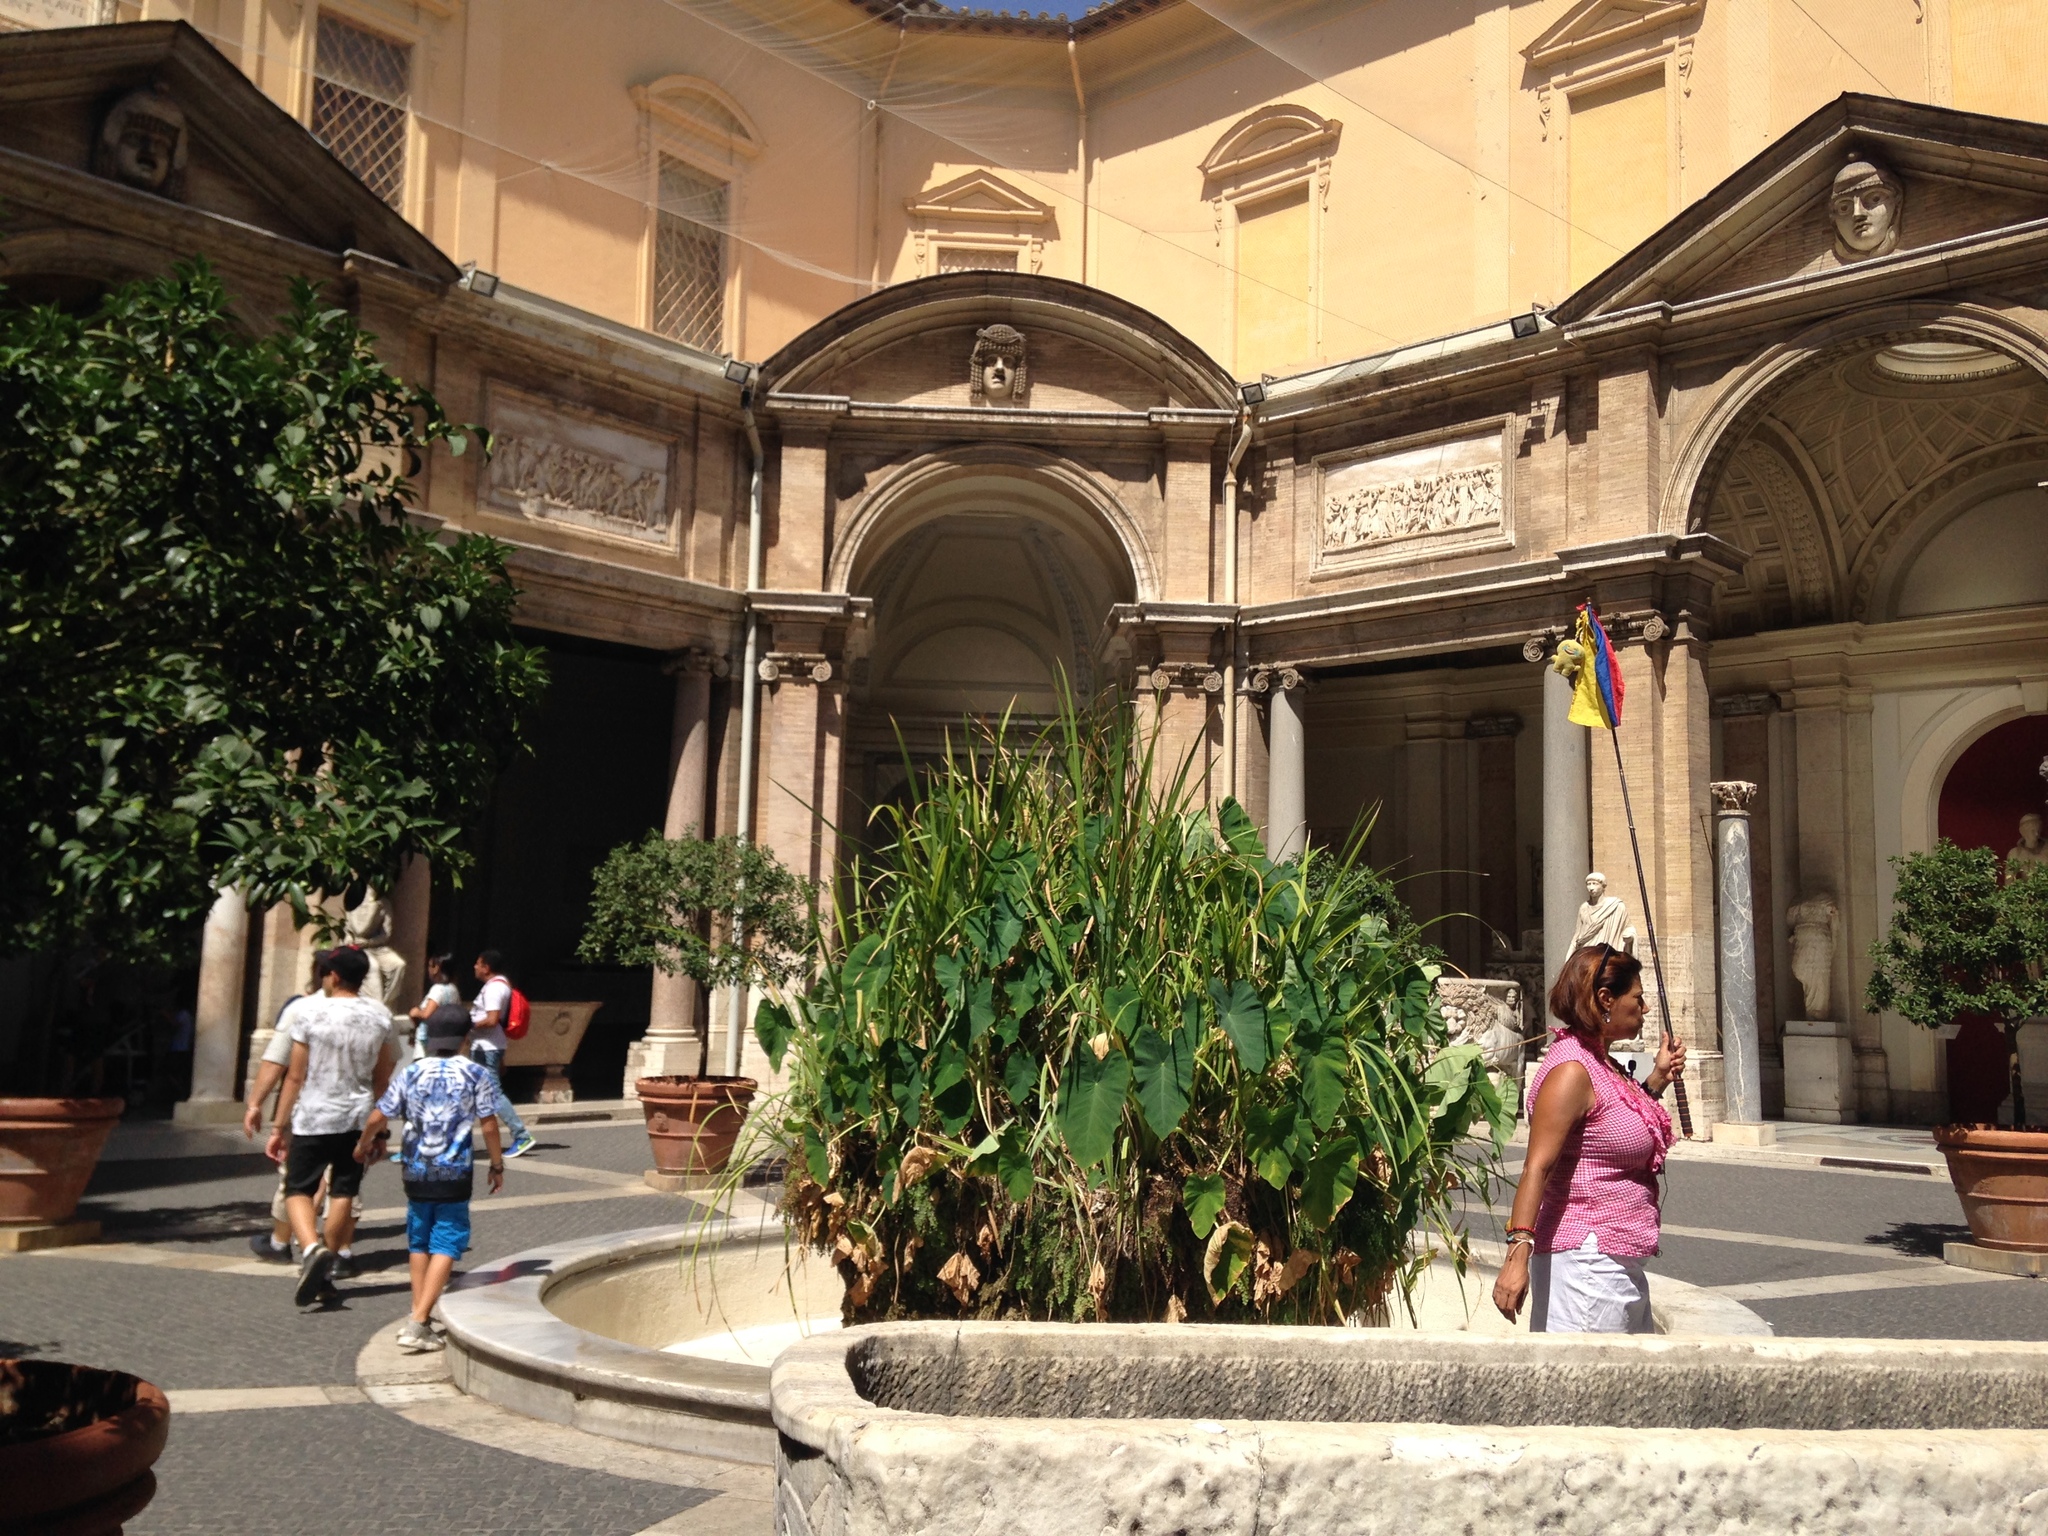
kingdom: Plantae
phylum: Tracheophyta
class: Polypodiopsida
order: Polypodiales
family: Pteridaceae
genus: Adiantum
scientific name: Adiantum capillus-veneris
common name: Maidenhair fern
